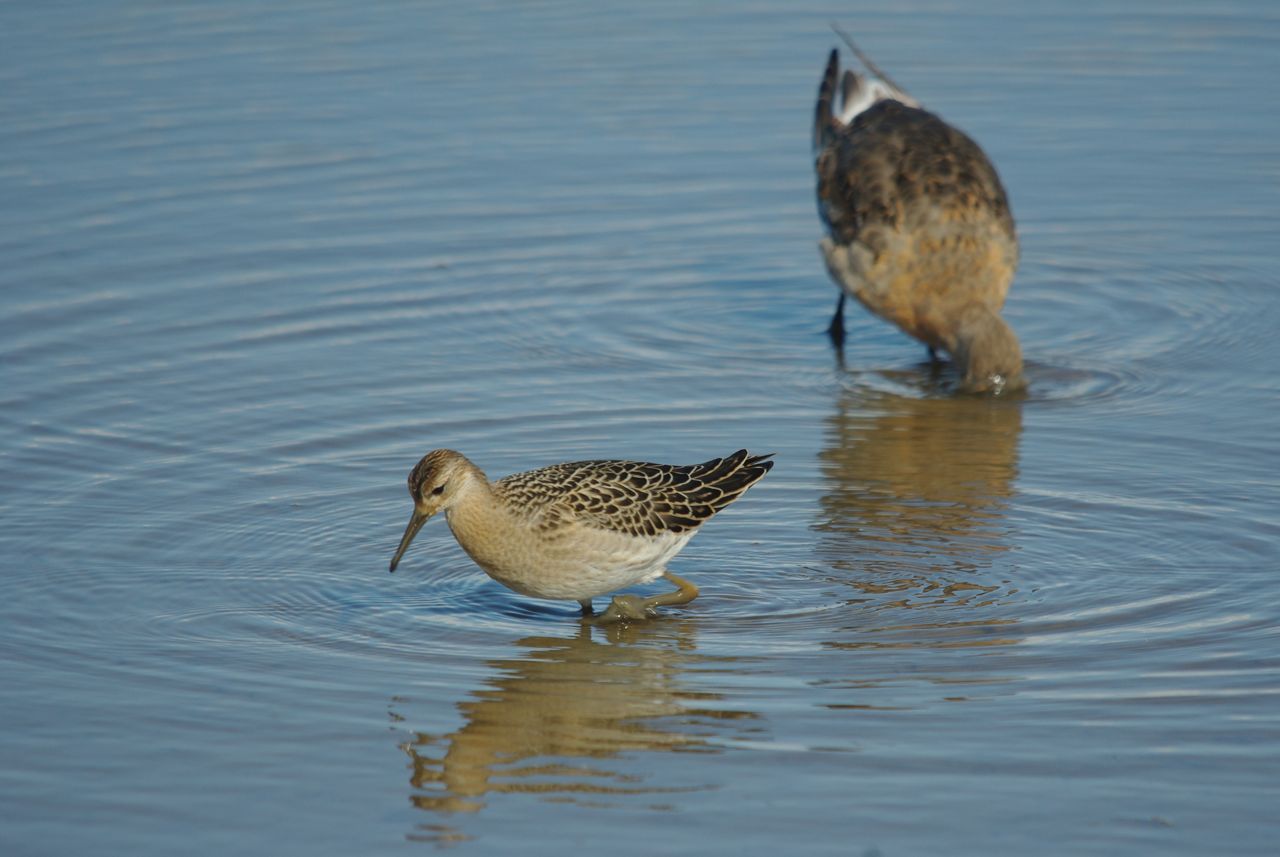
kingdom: Animalia
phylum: Chordata
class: Aves
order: Charadriiformes
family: Scolopacidae
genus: Calidris
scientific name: Calidris pugnax
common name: Ruff
